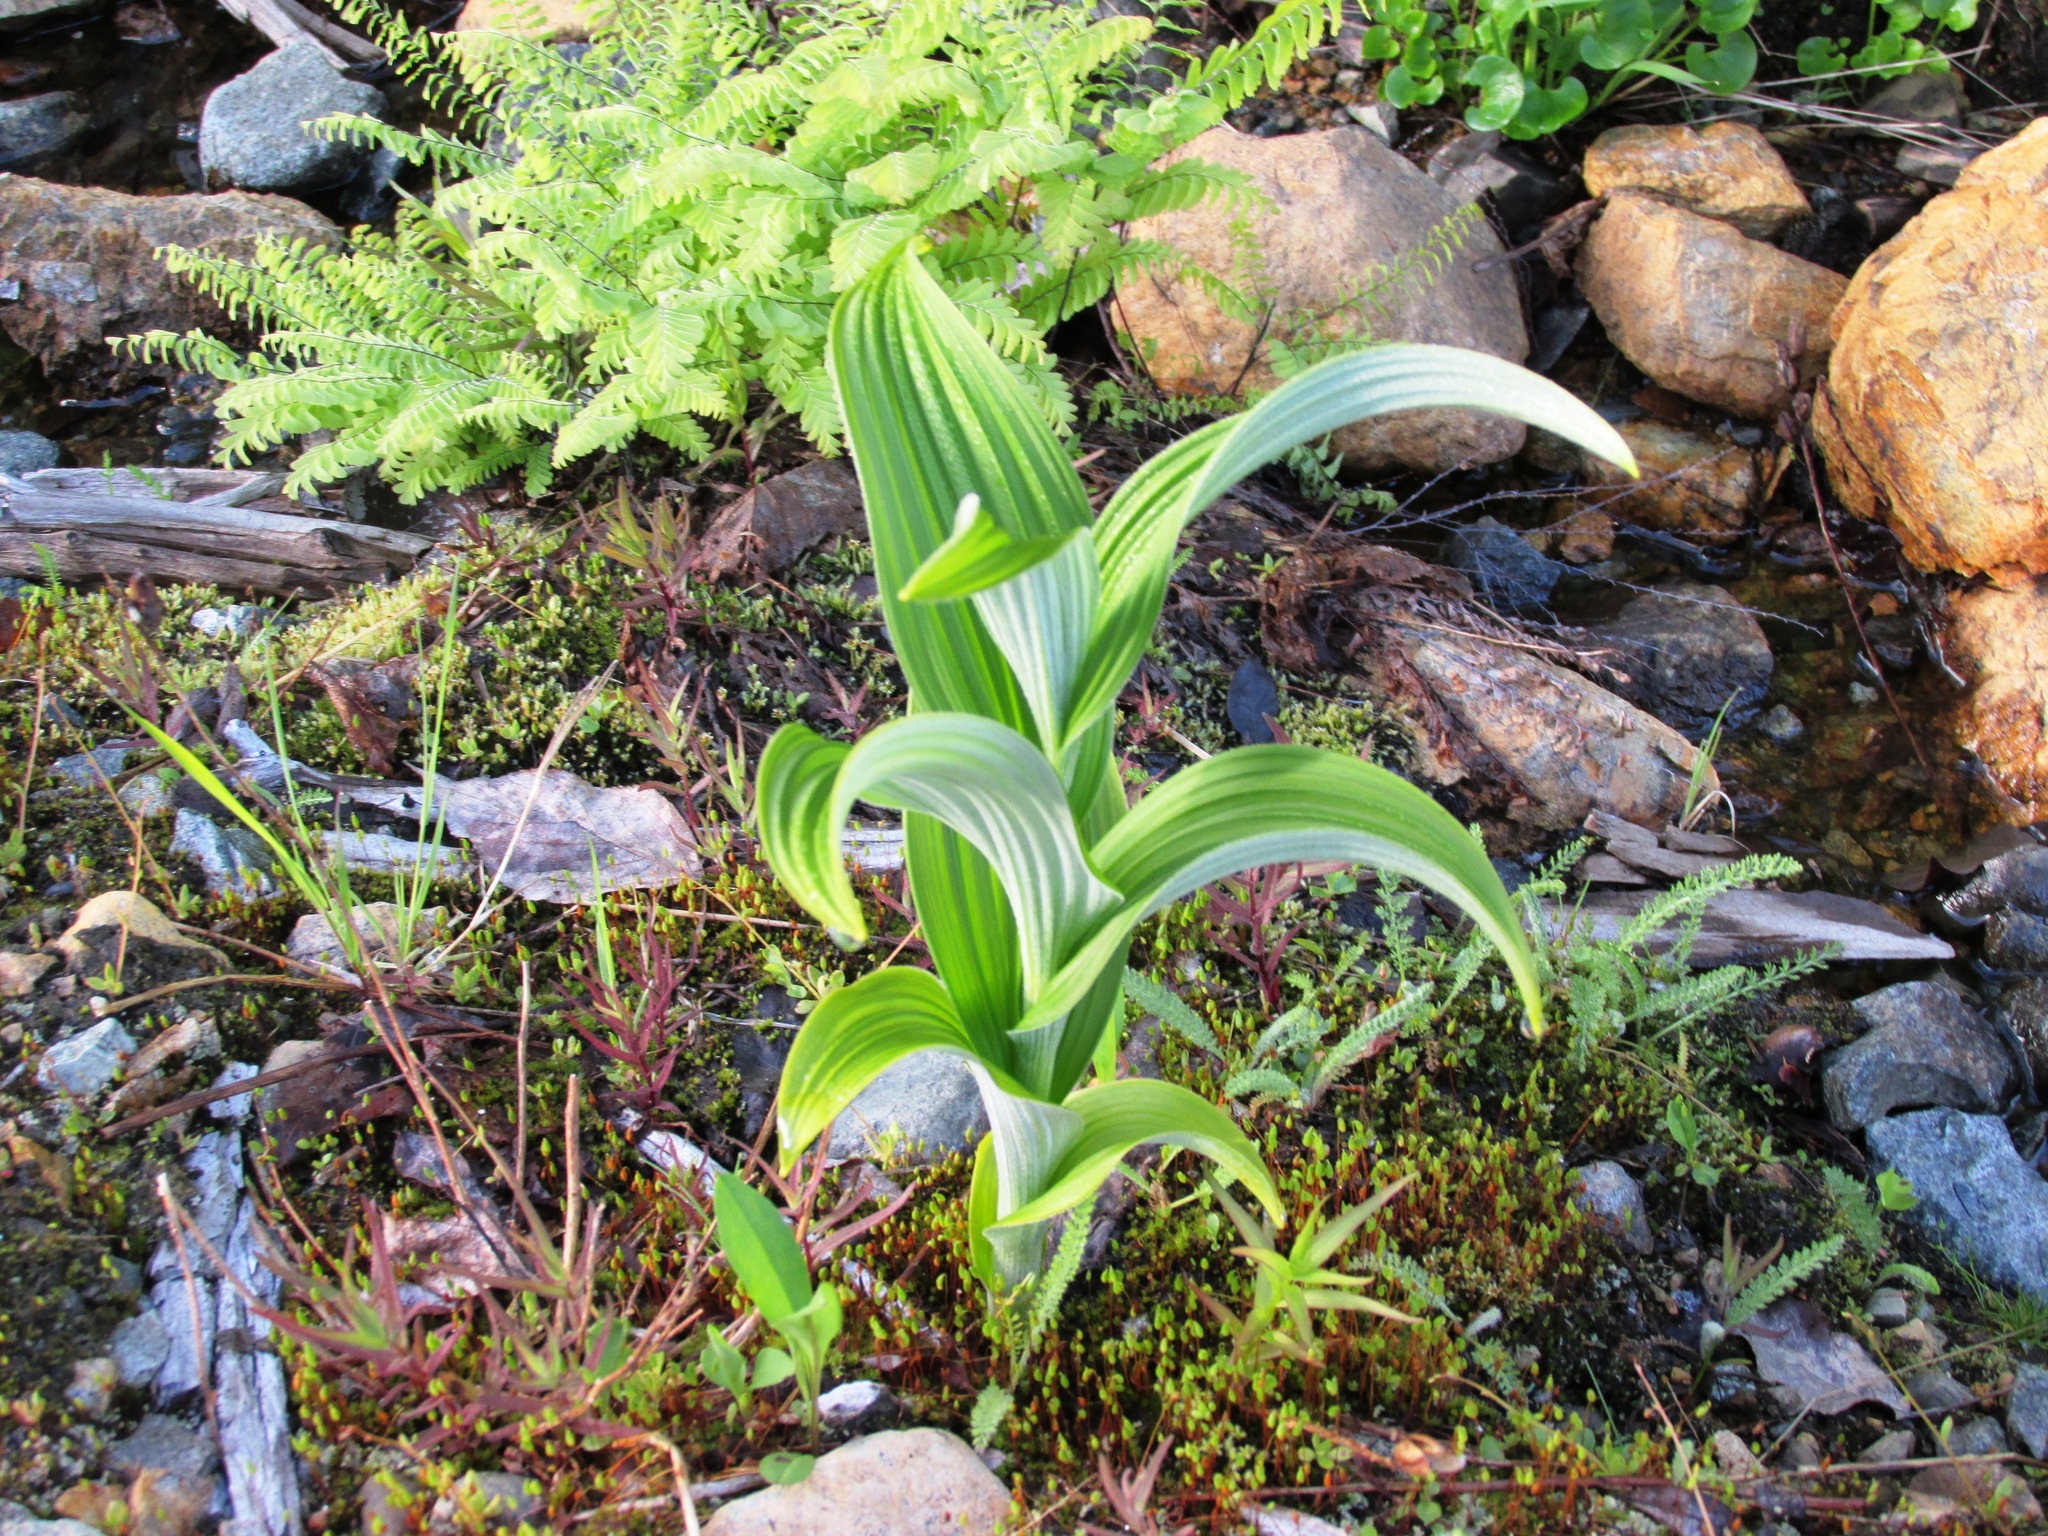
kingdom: Plantae
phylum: Tracheophyta
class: Liliopsida
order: Liliales
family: Melanthiaceae
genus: Veratrum
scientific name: Veratrum viride
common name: American false hellebore
